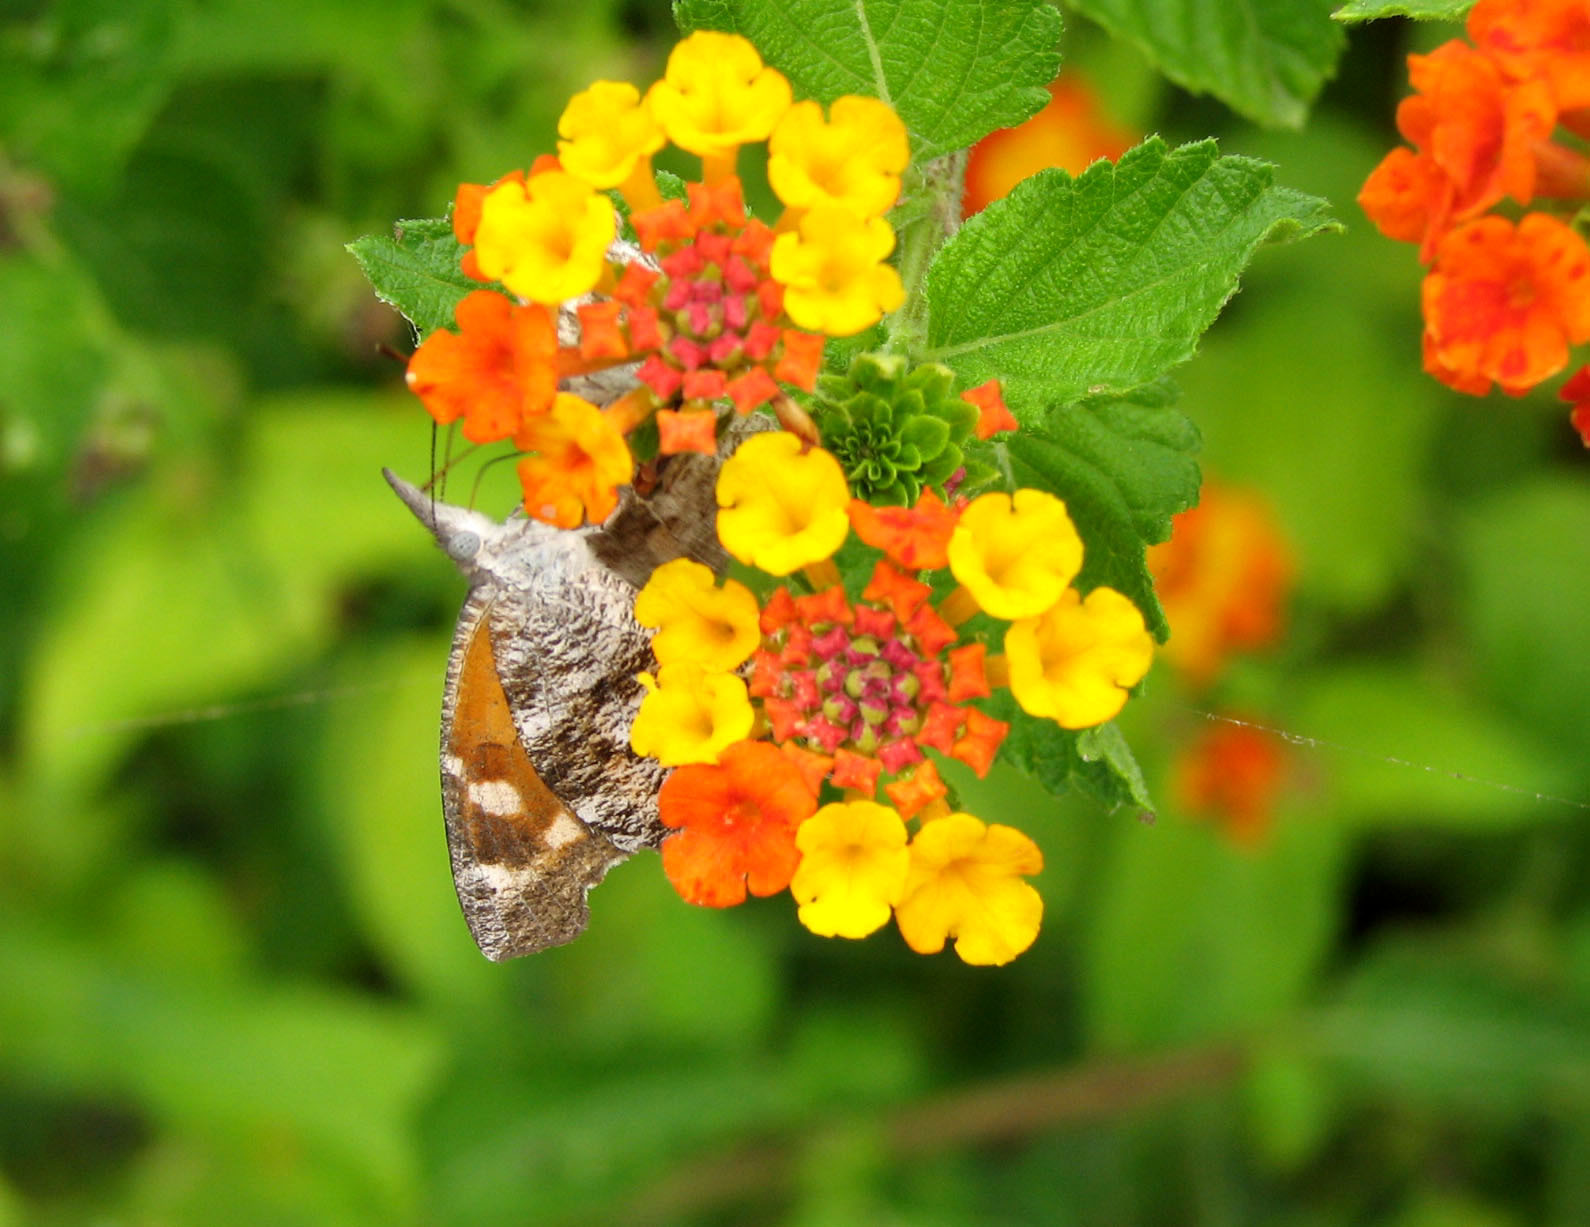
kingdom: Animalia
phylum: Arthropoda
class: Insecta
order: Lepidoptera
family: Nymphalidae
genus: Libytheana
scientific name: Libytheana carinenta
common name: American snout
